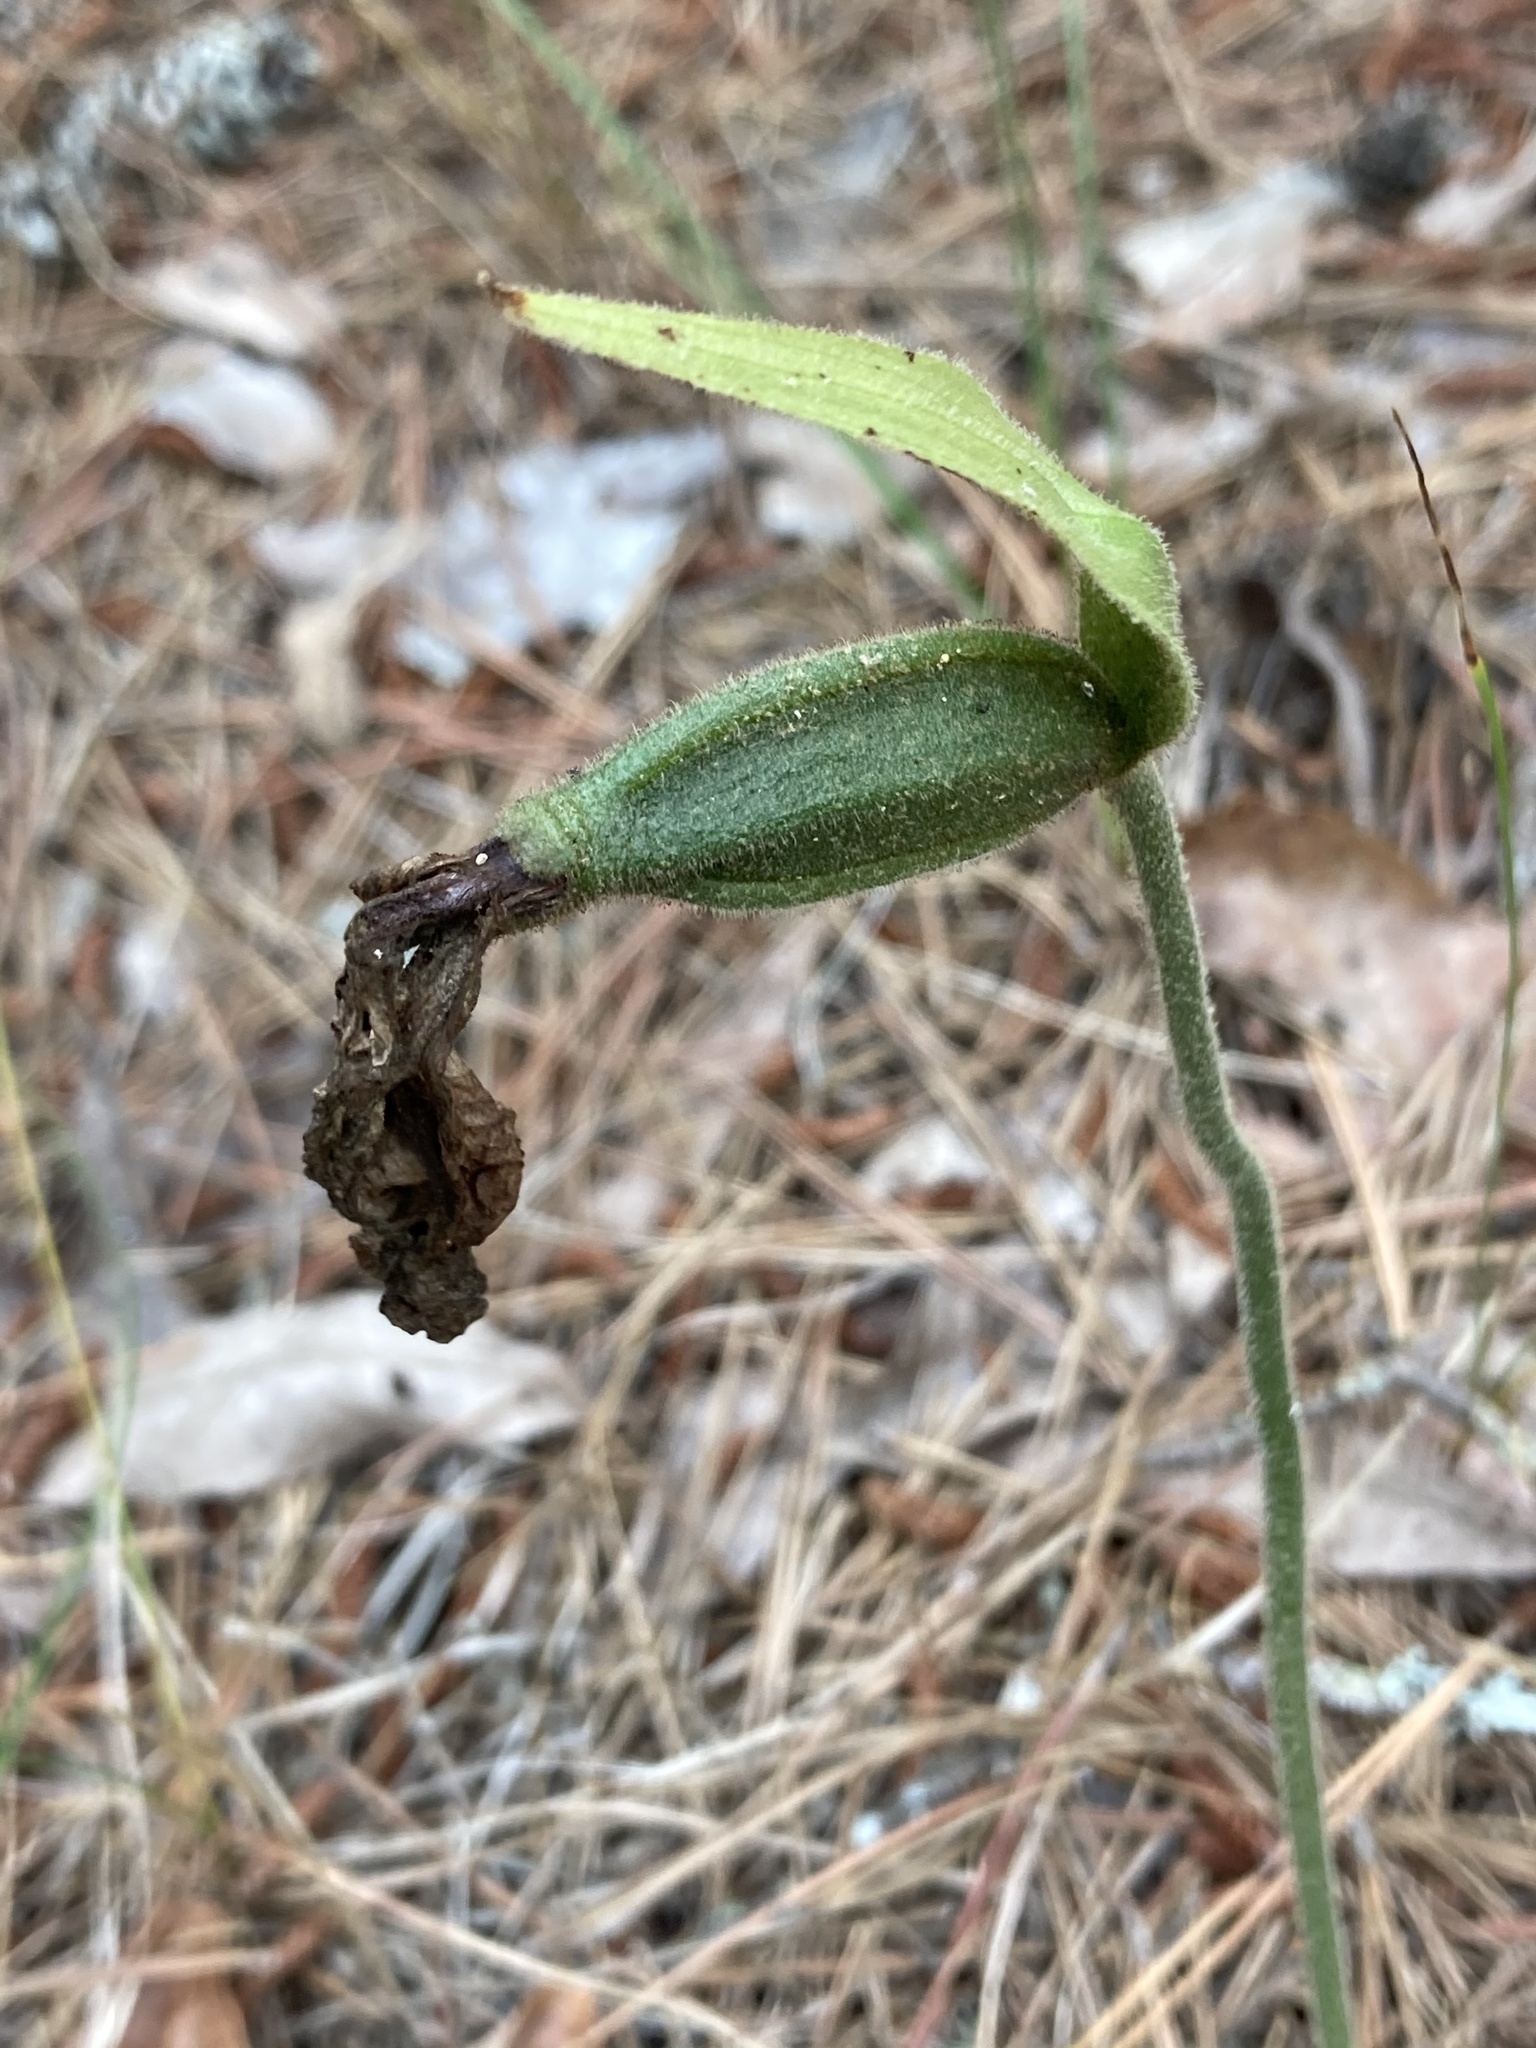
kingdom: Plantae
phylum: Tracheophyta
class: Liliopsida
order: Asparagales
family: Orchidaceae
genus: Cypripedium
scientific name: Cypripedium acaule
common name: Pink lady's-slipper
